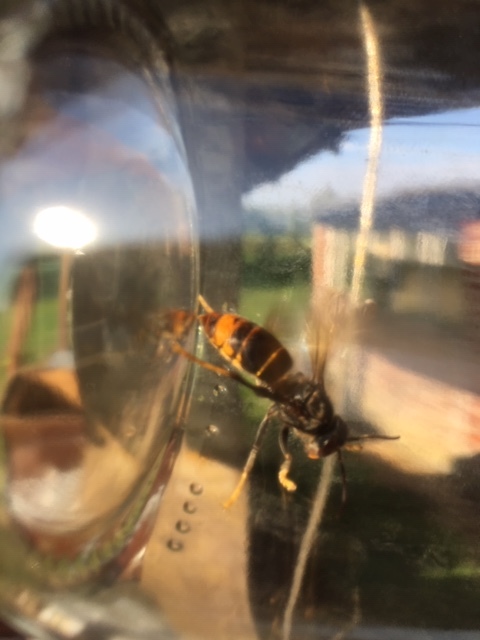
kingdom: Animalia
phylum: Arthropoda
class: Insecta
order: Hymenoptera
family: Vespidae
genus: Vespa
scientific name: Vespa velutina
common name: Asian hornet
